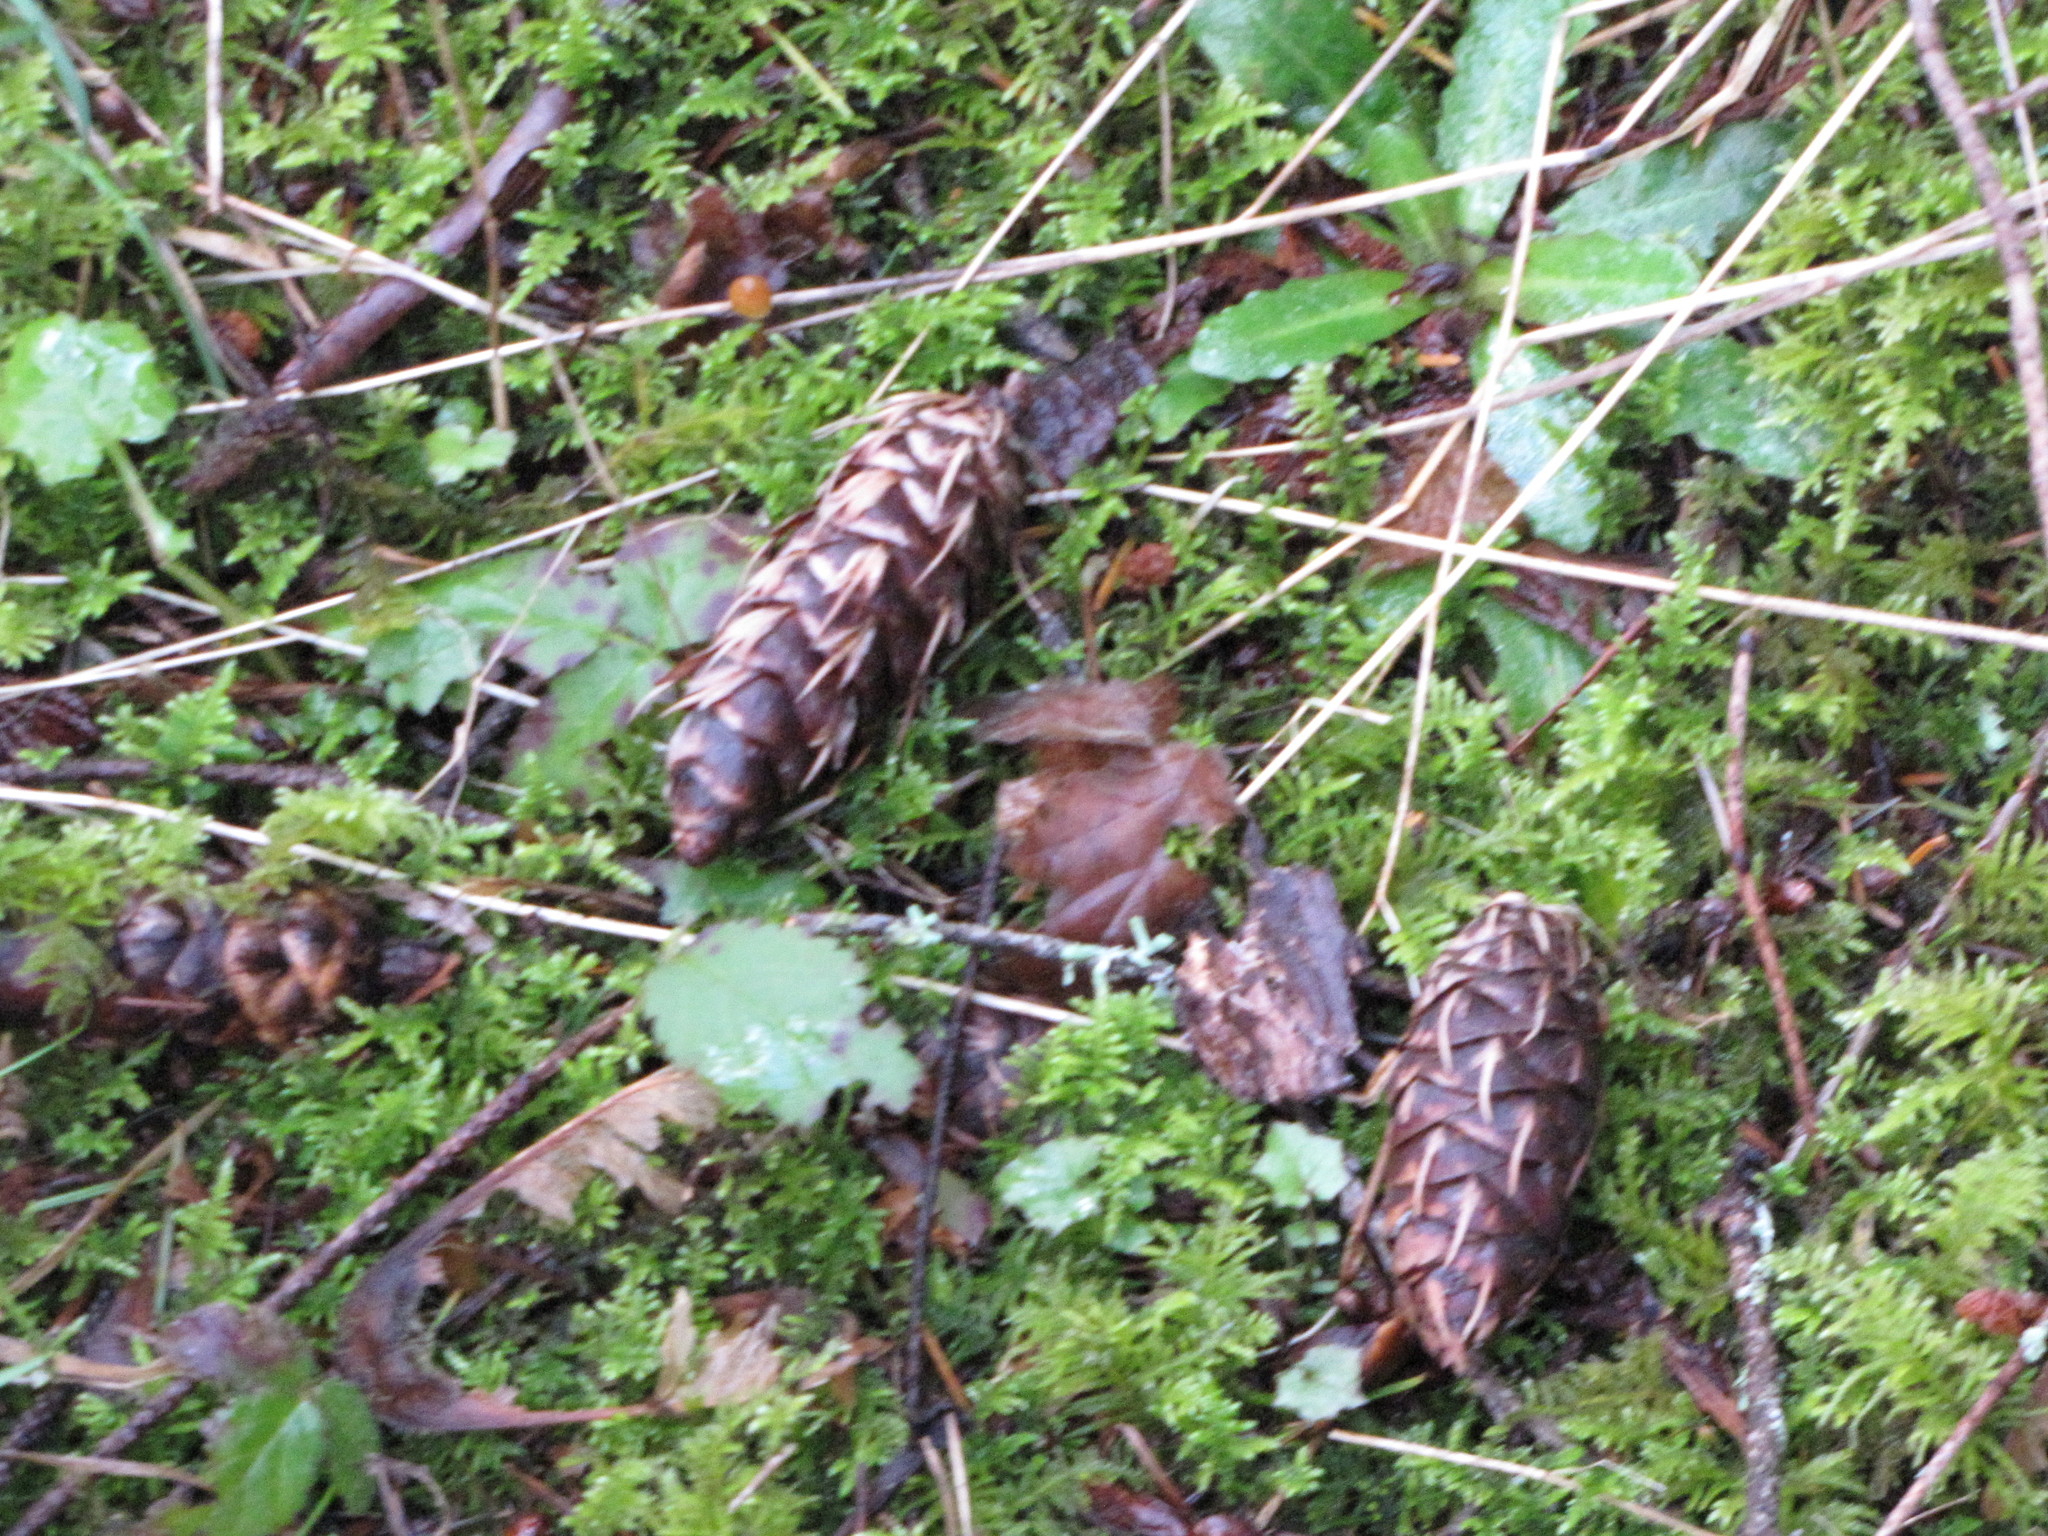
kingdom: Plantae
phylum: Tracheophyta
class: Pinopsida
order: Pinales
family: Pinaceae
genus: Pseudotsuga
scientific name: Pseudotsuga menziesii
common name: Douglas fir
